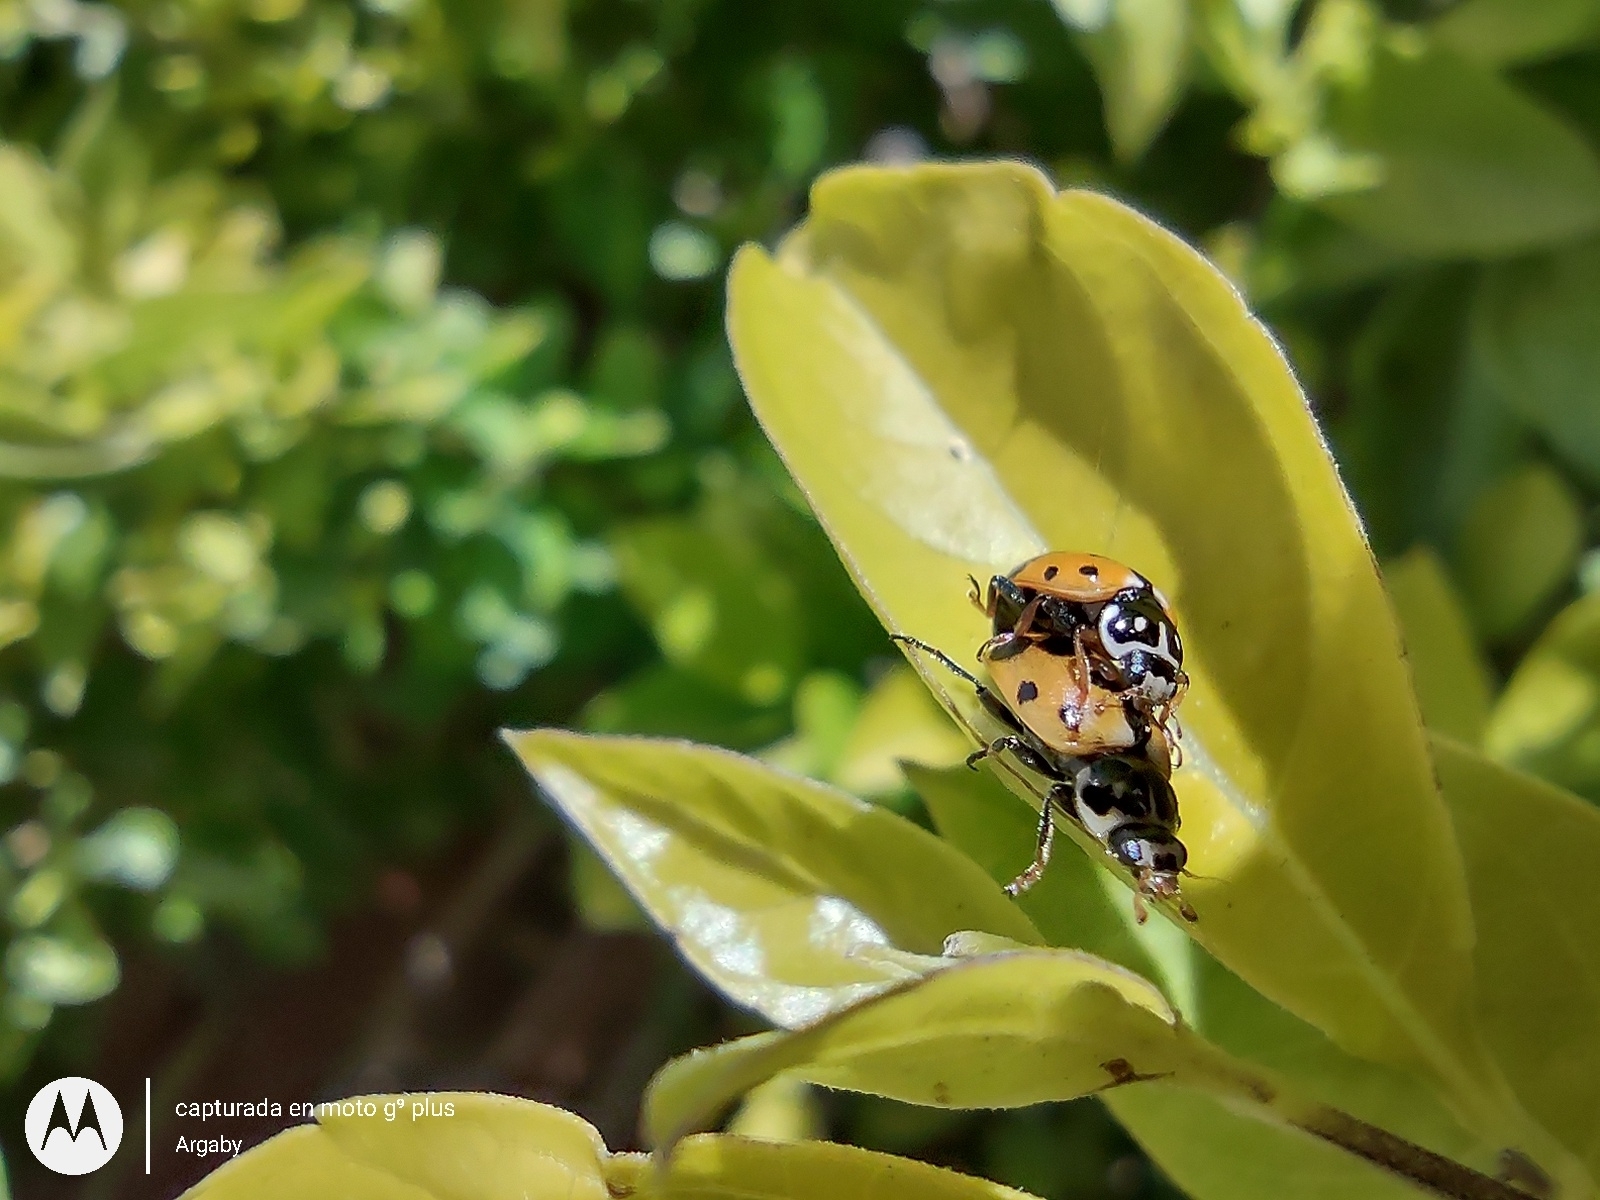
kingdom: Animalia
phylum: Arthropoda
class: Insecta
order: Coleoptera
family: Coccinellidae
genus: Hippodamia
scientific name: Hippodamia variegata
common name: Ladybird beetle
